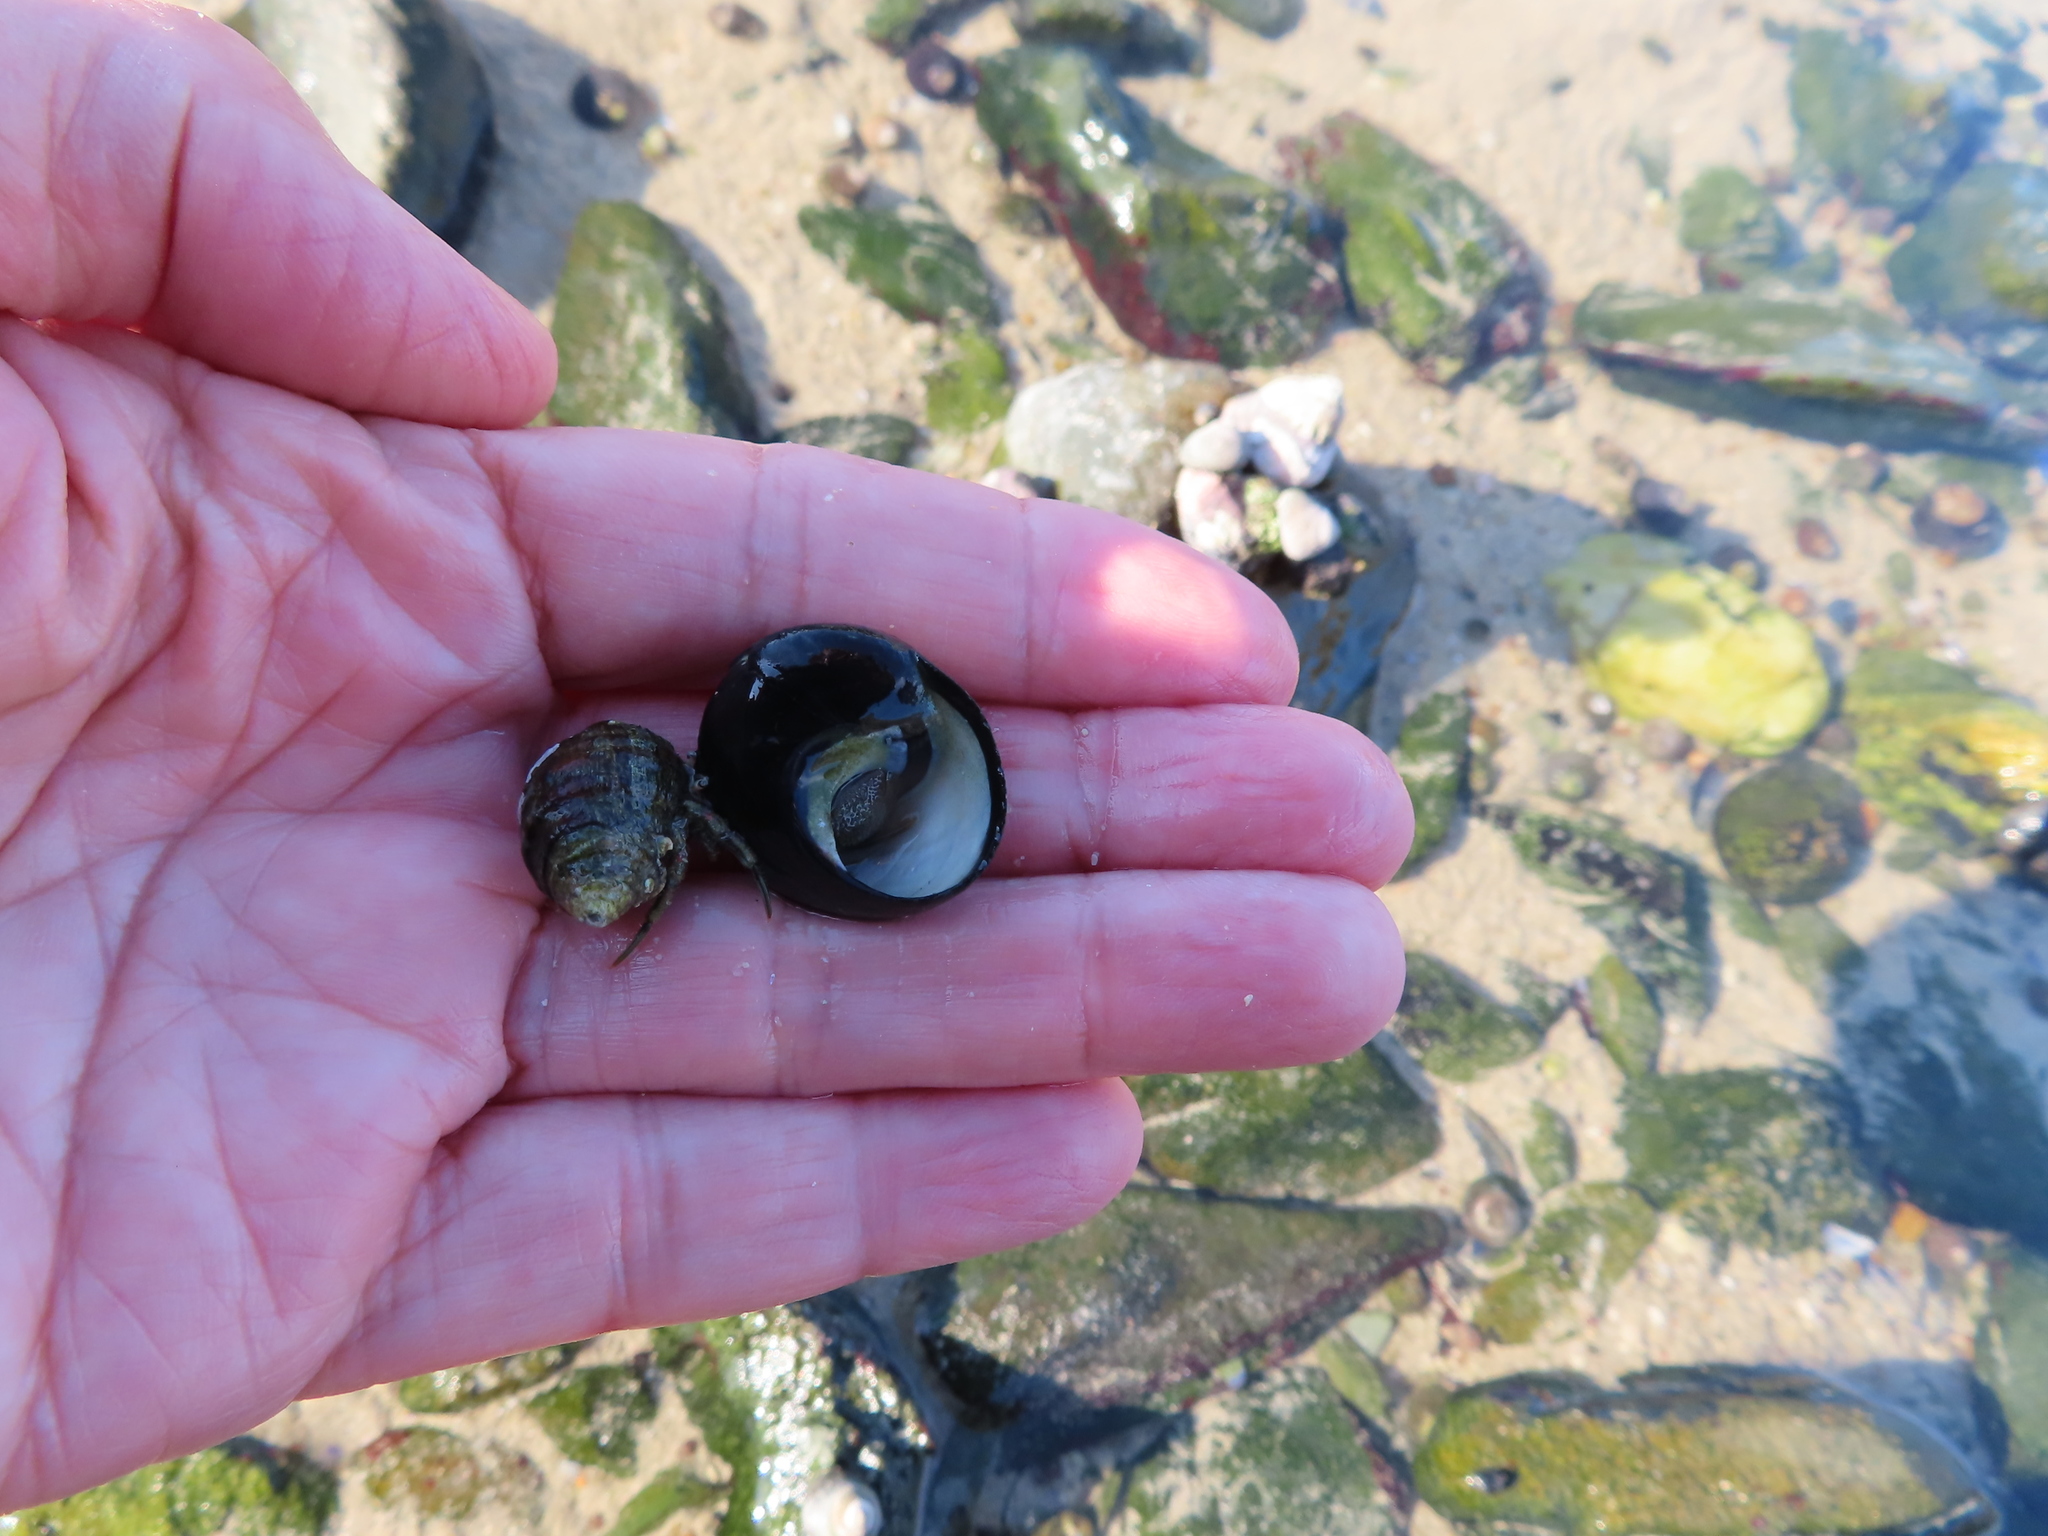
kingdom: Animalia
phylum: Arthropoda
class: Malacostraca
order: Decapoda
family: Diogenidae
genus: Diogenes
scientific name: Diogenes brevirostris
